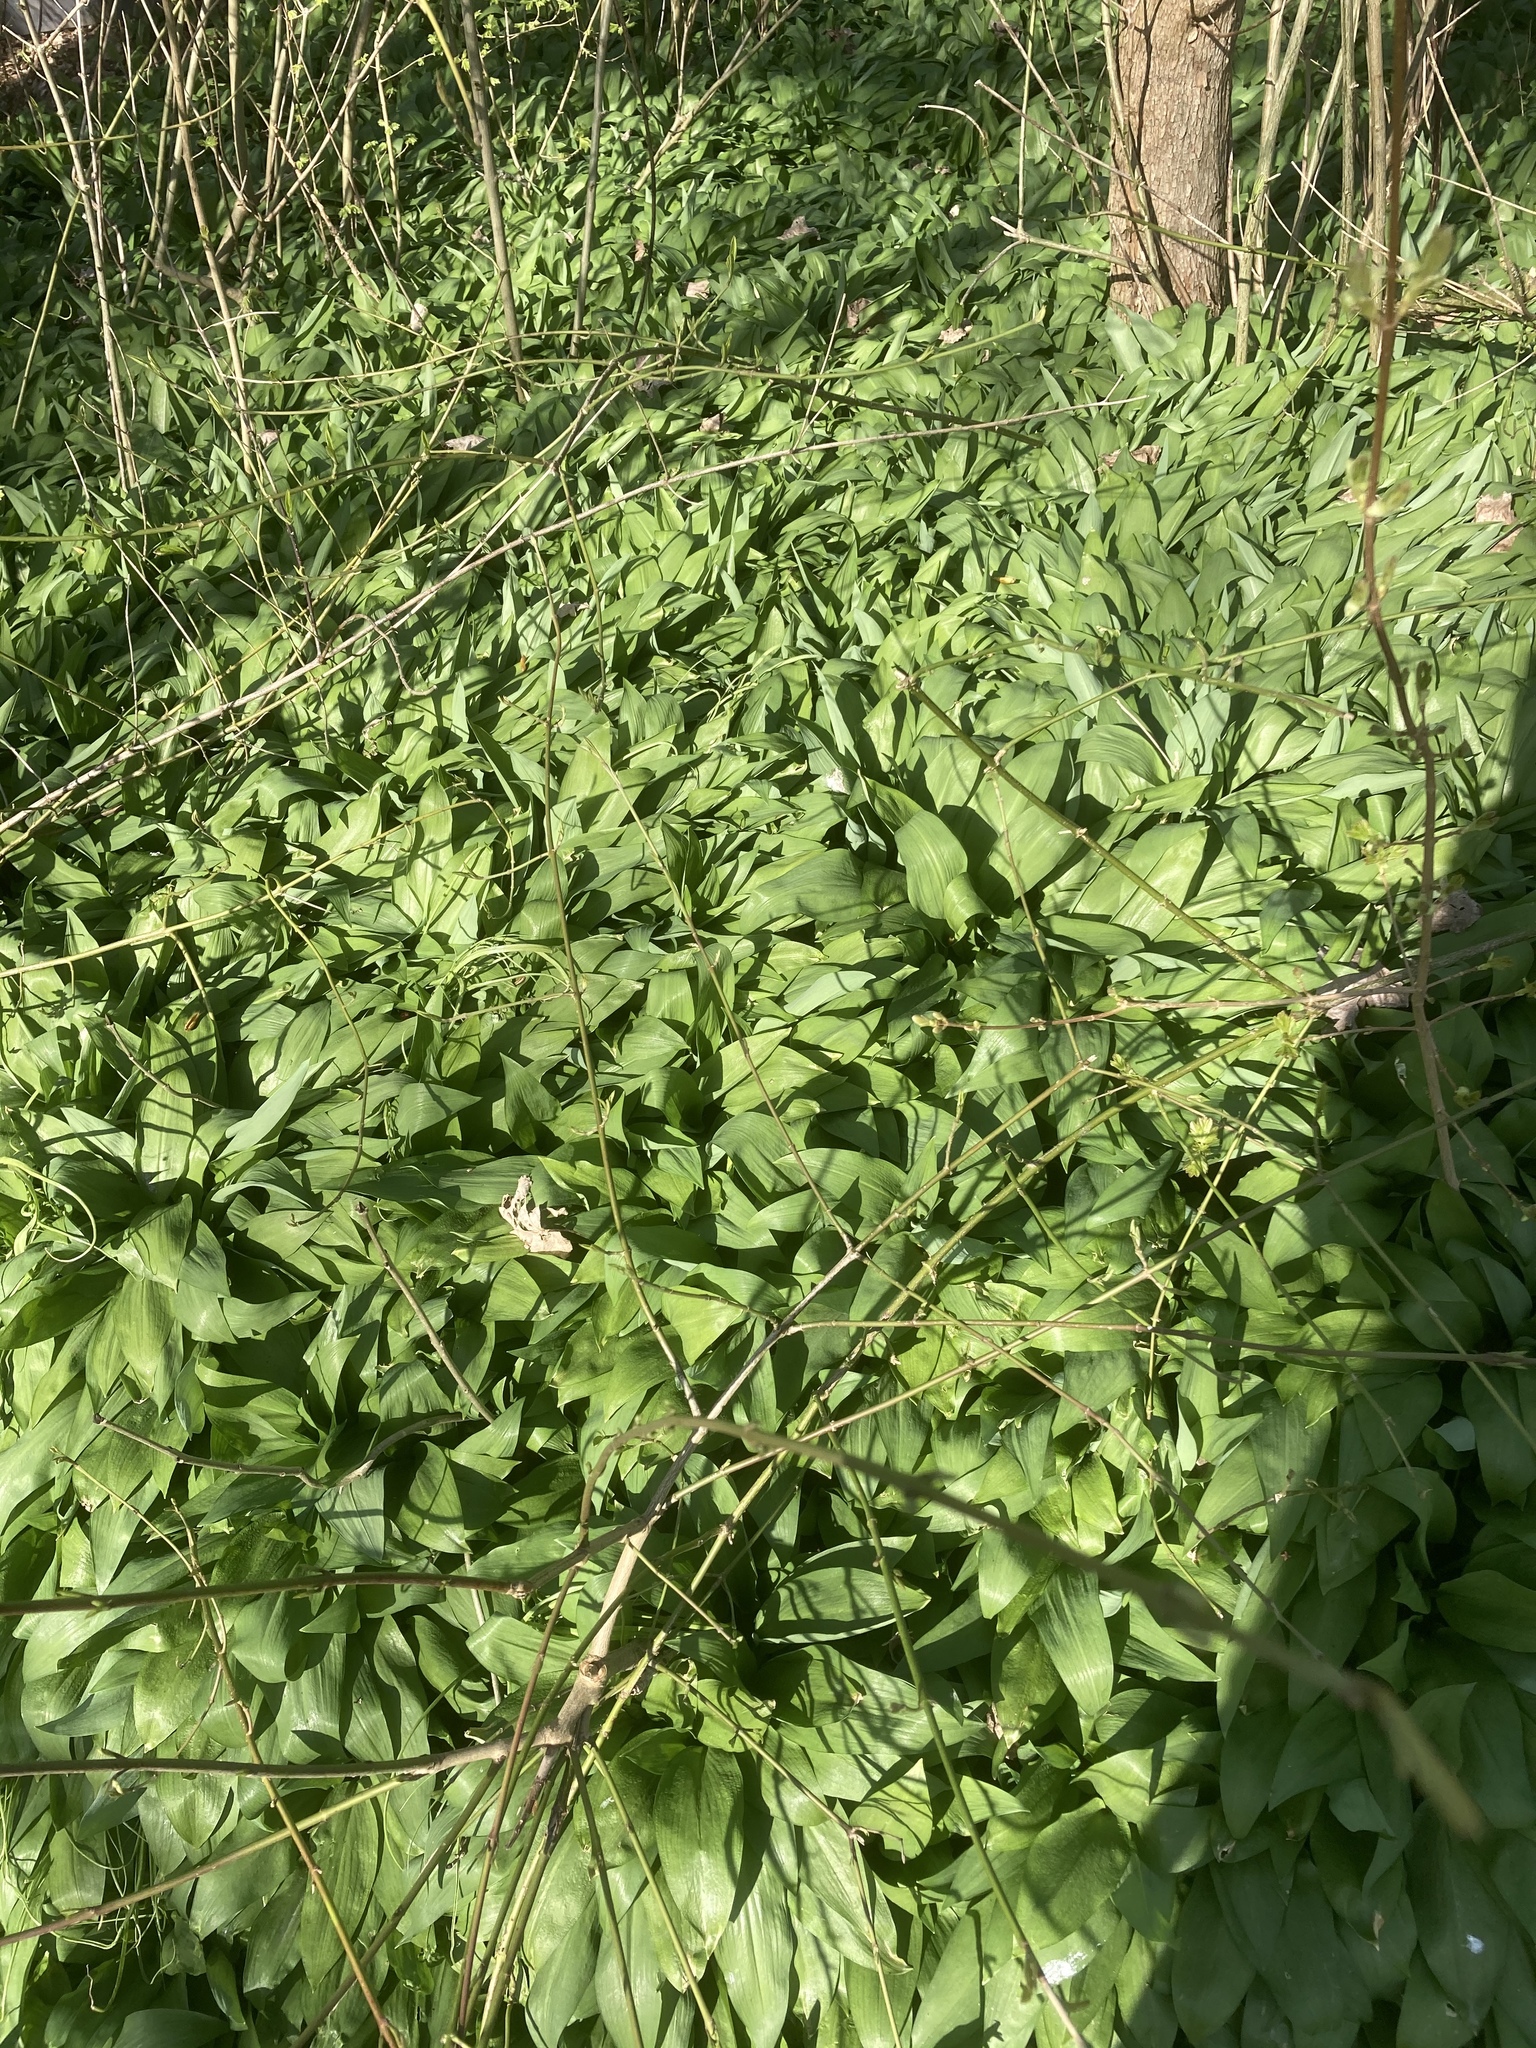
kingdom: Plantae
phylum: Tracheophyta
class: Liliopsida
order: Asparagales
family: Amaryllidaceae
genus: Allium
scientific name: Allium ursinum
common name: Ramsons
